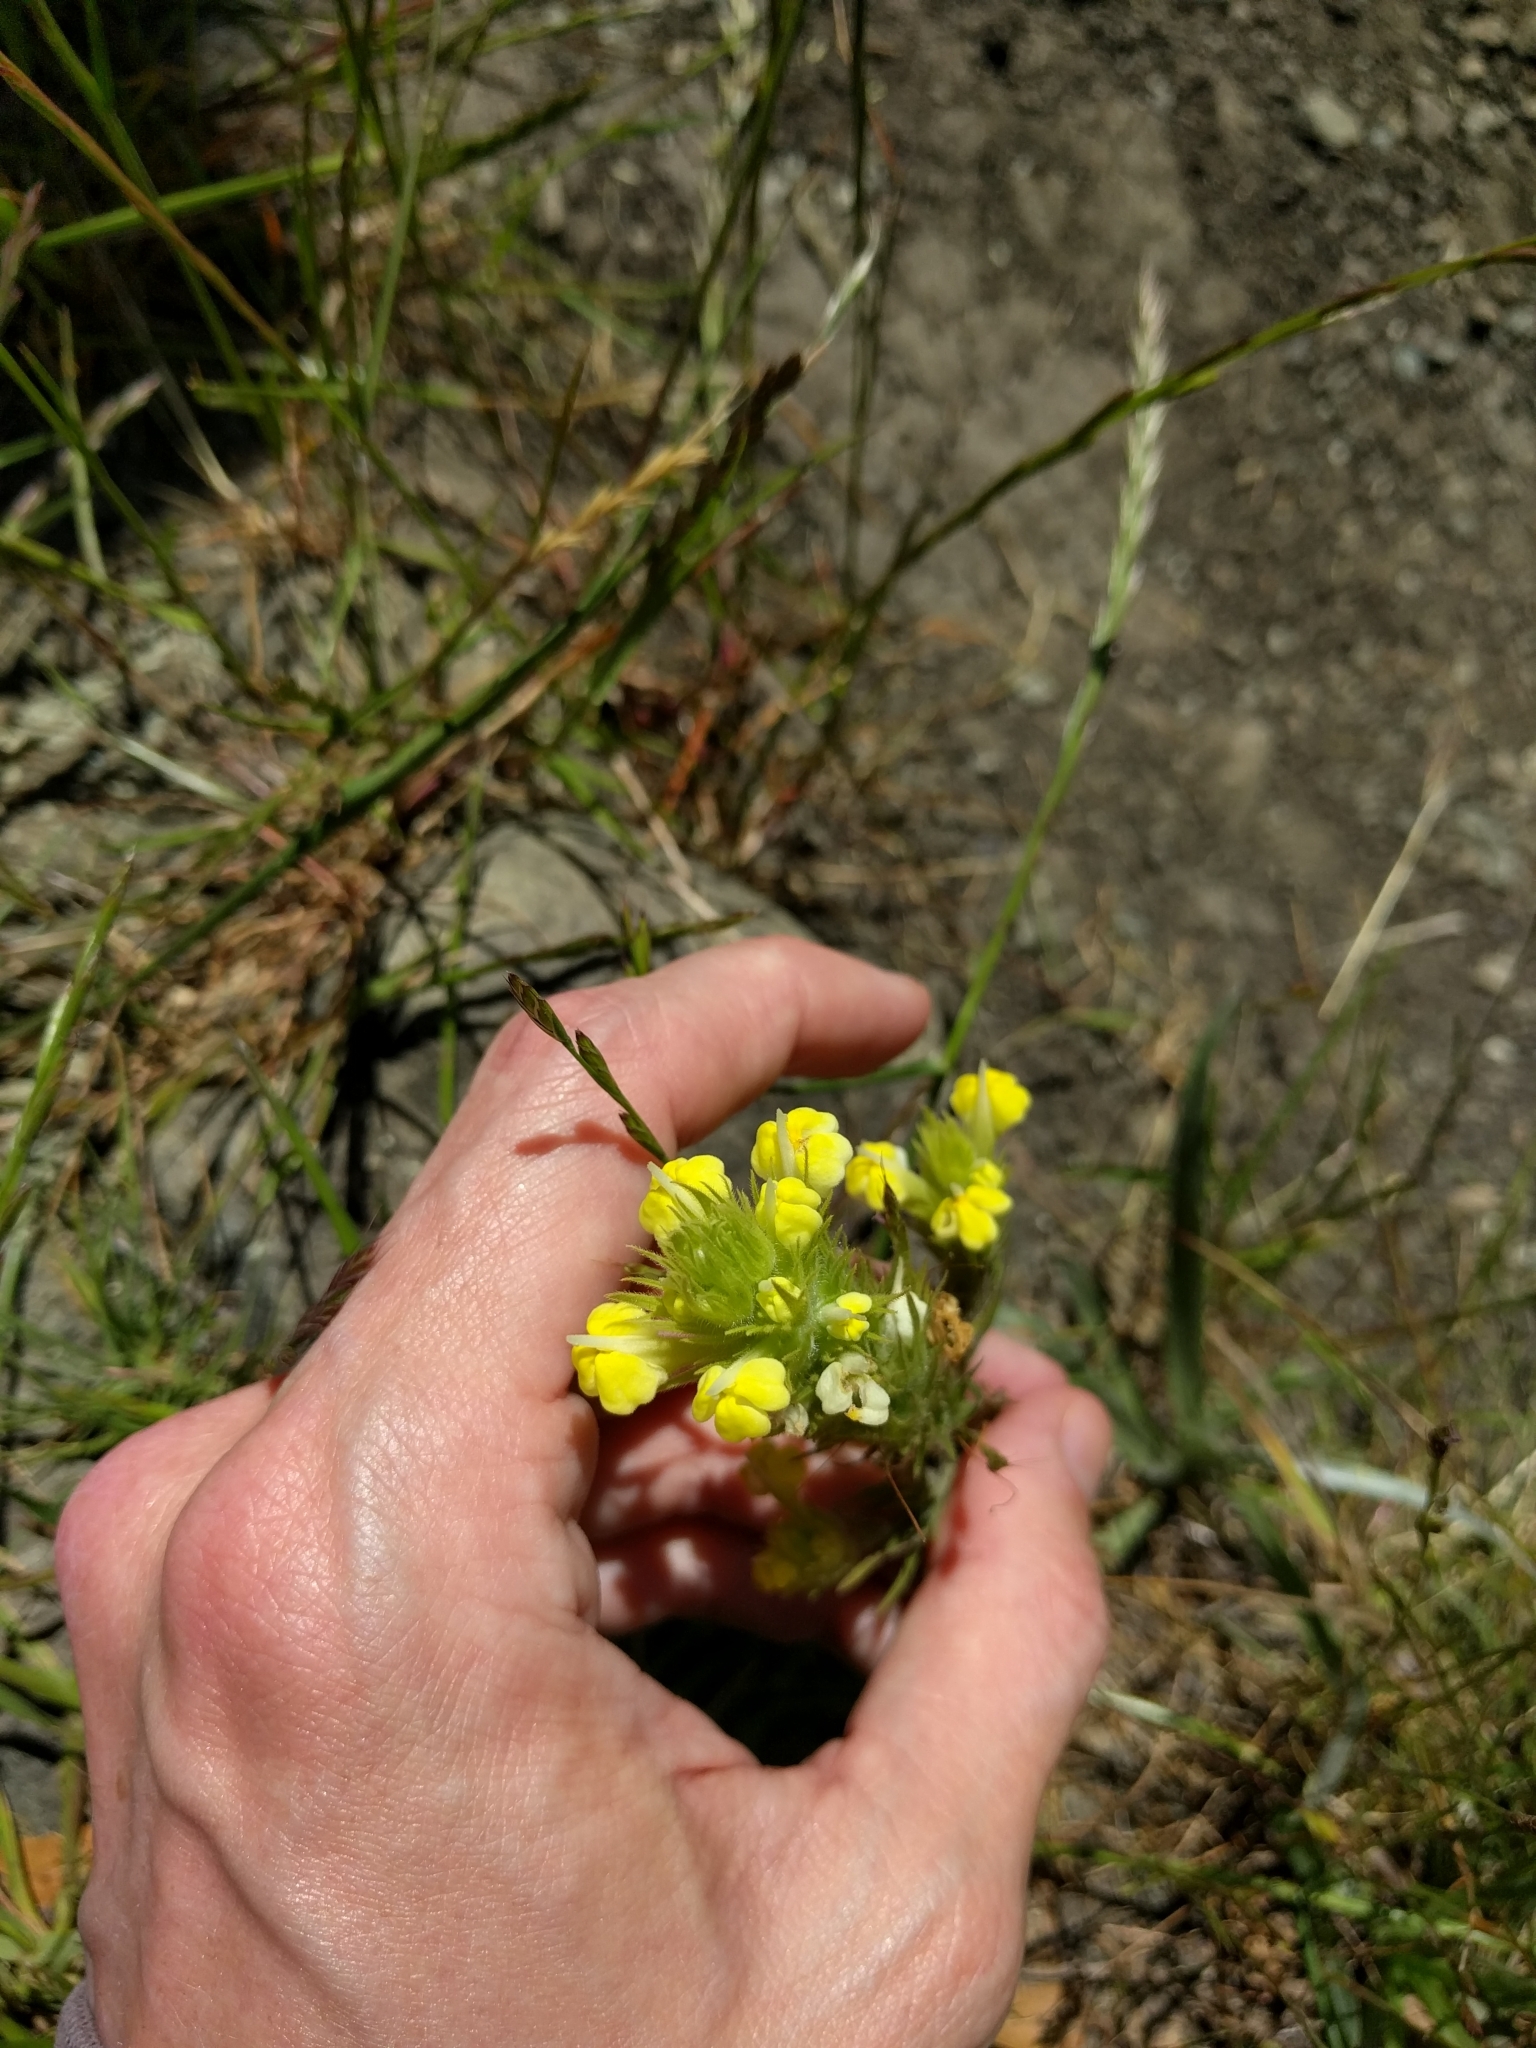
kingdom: Plantae
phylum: Tracheophyta
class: Magnoliopsida
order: Lamiales
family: Orobanchaceae
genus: Castilleja
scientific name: Castilleja rubicundula
